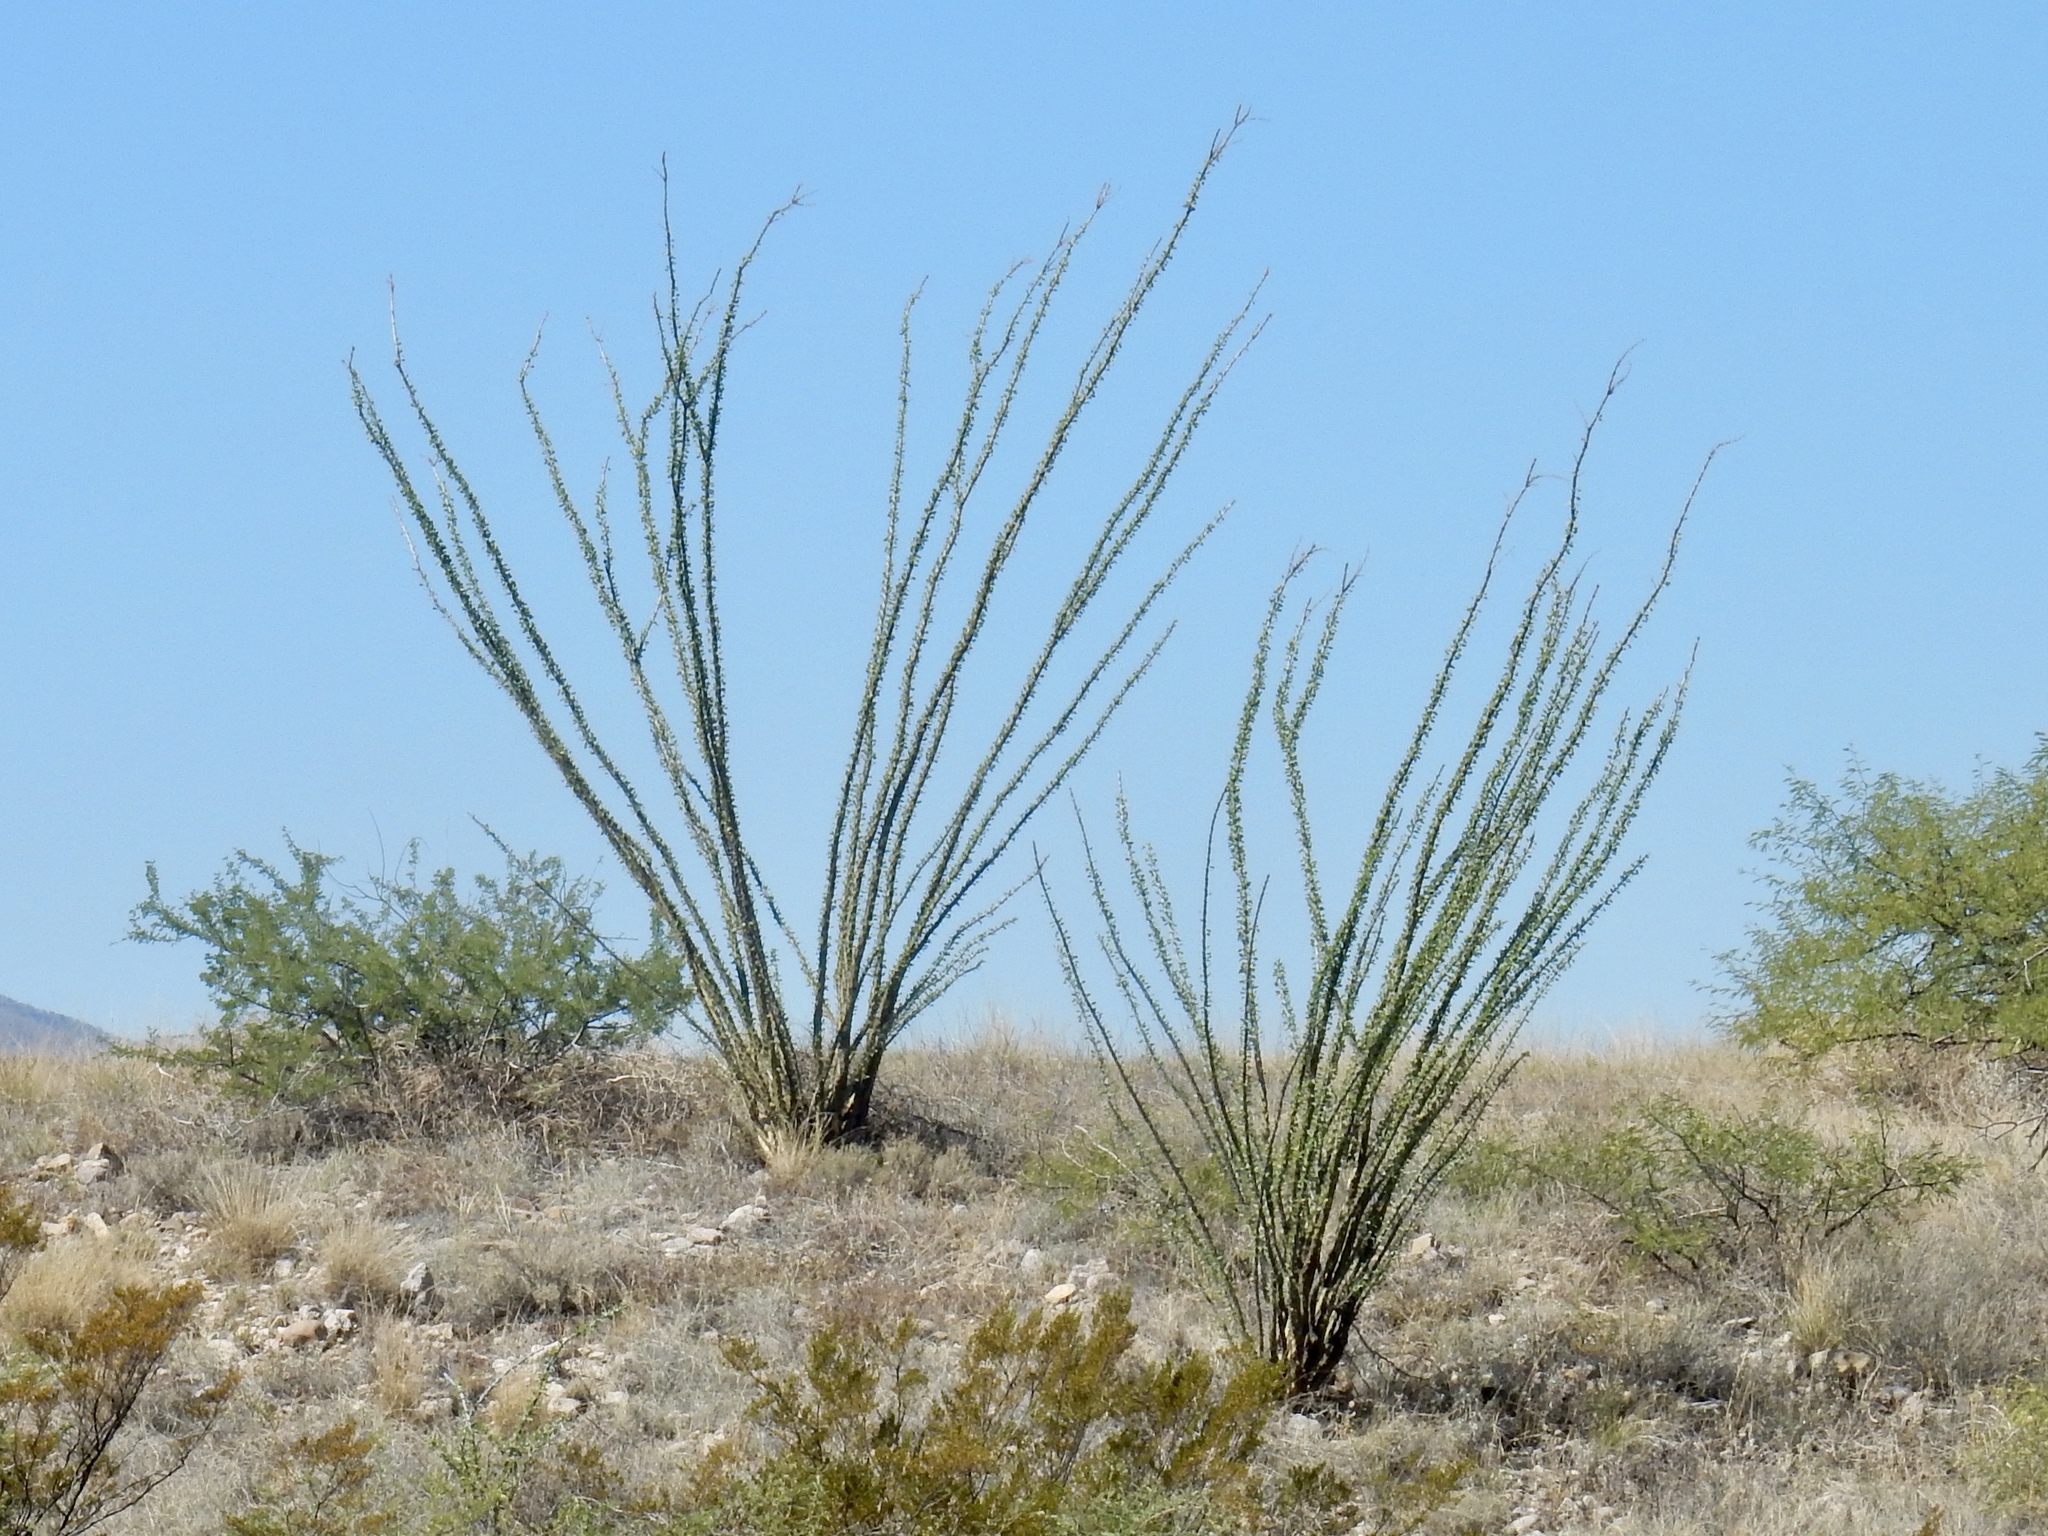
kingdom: Plantae
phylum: Tracheophyta
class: Magnoliopsida
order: Ericales
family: Fouquieriaceae
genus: Fouquieria
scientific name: Fouquieria splendens
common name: Vine-cactus
